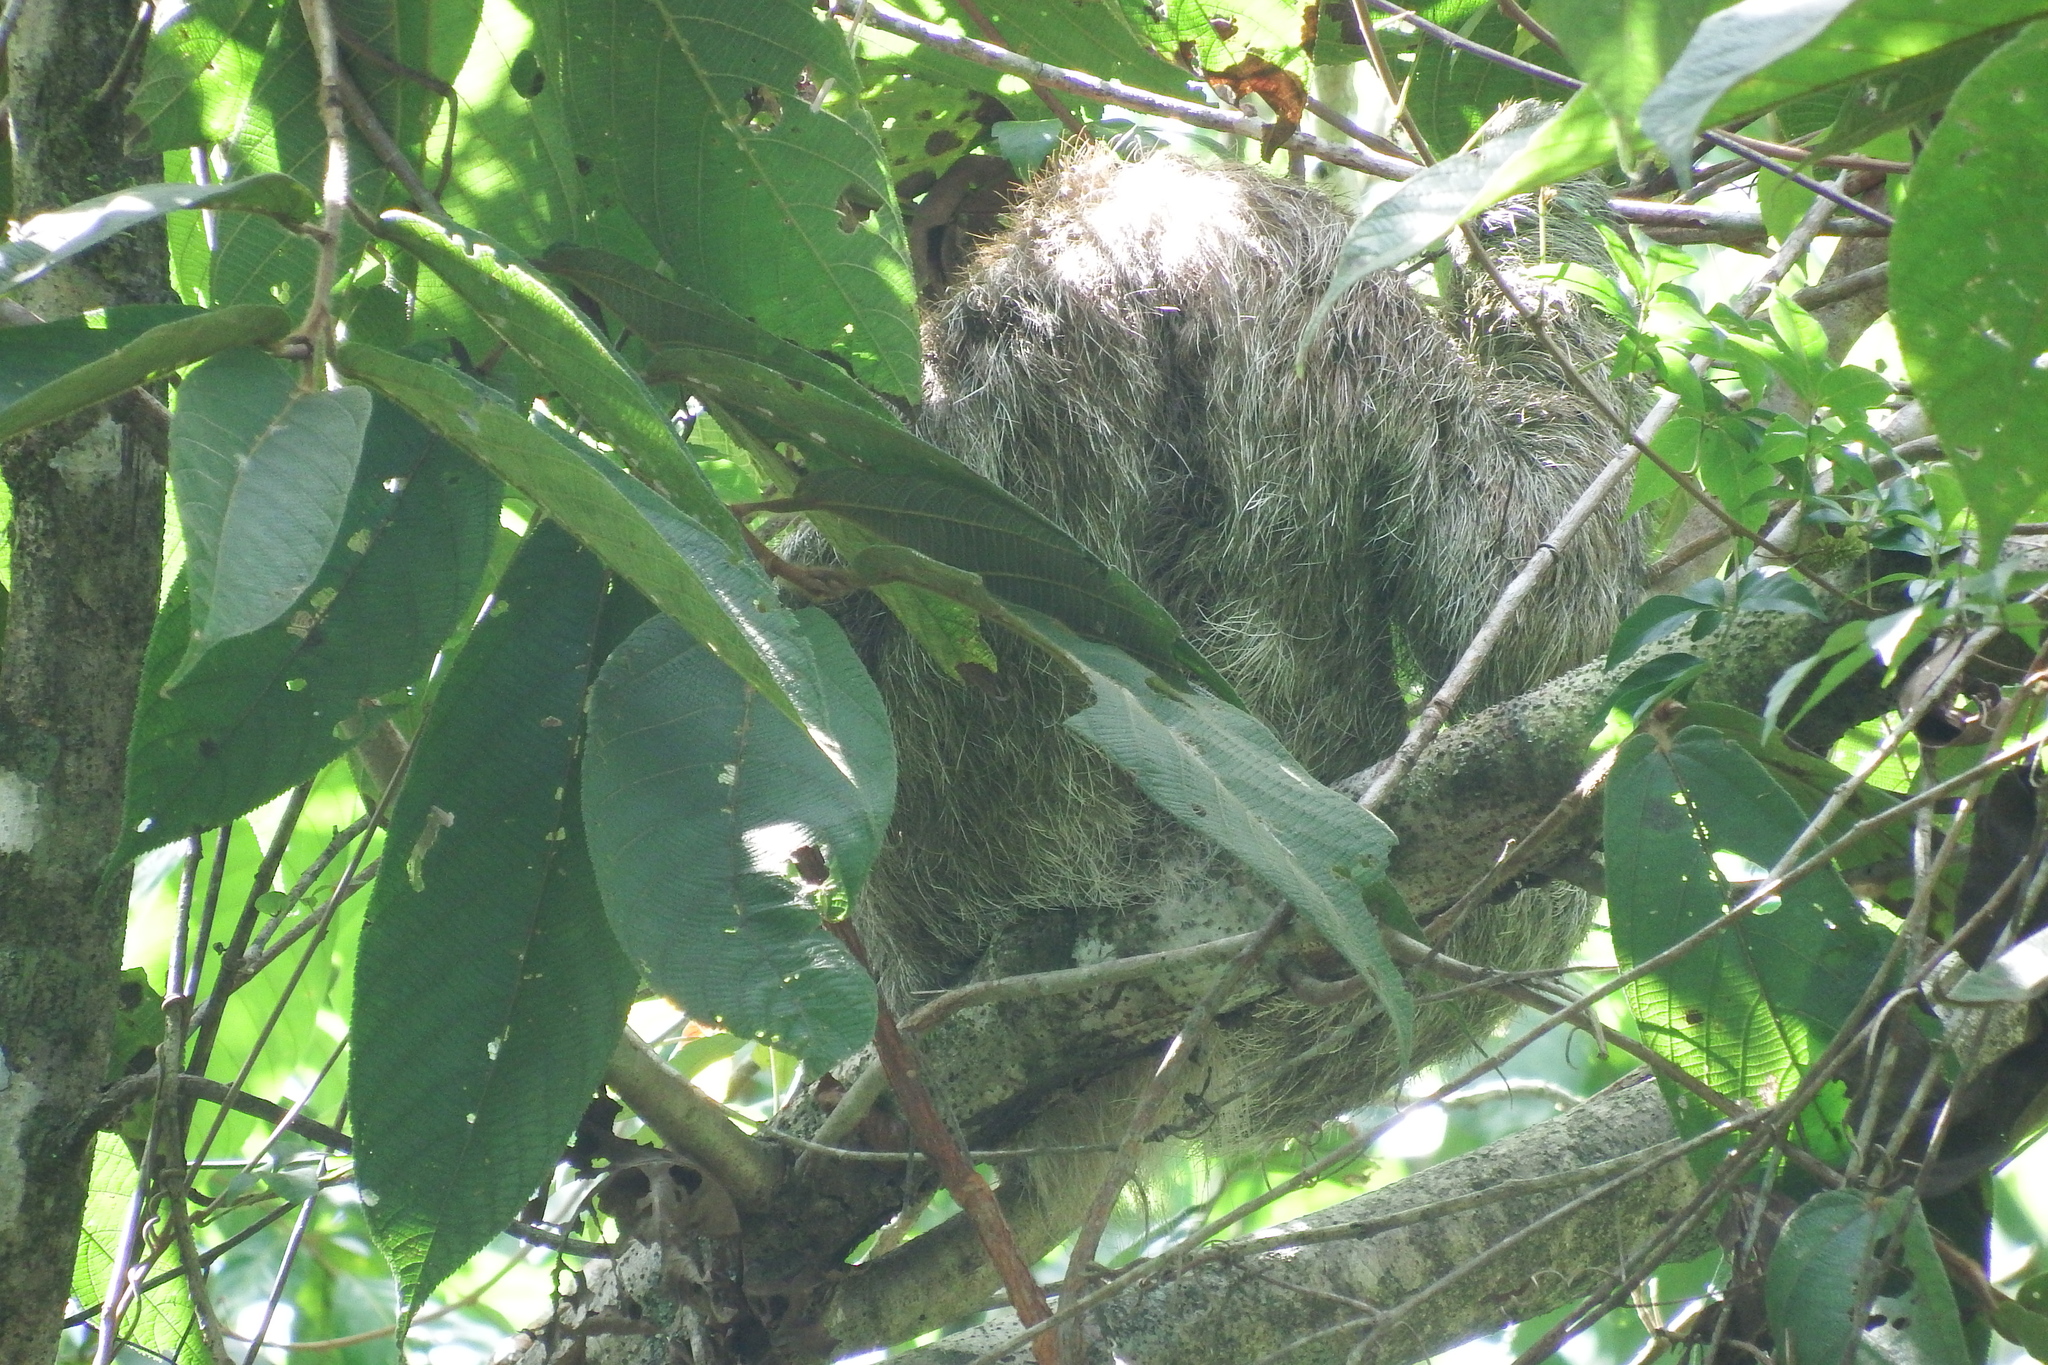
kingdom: Animalia
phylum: Chordata
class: Mammalia
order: Pilosa
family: Bradypodidae
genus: Bradypus
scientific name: Bradypus variegatus
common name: Brown-throated three-toed sloth
